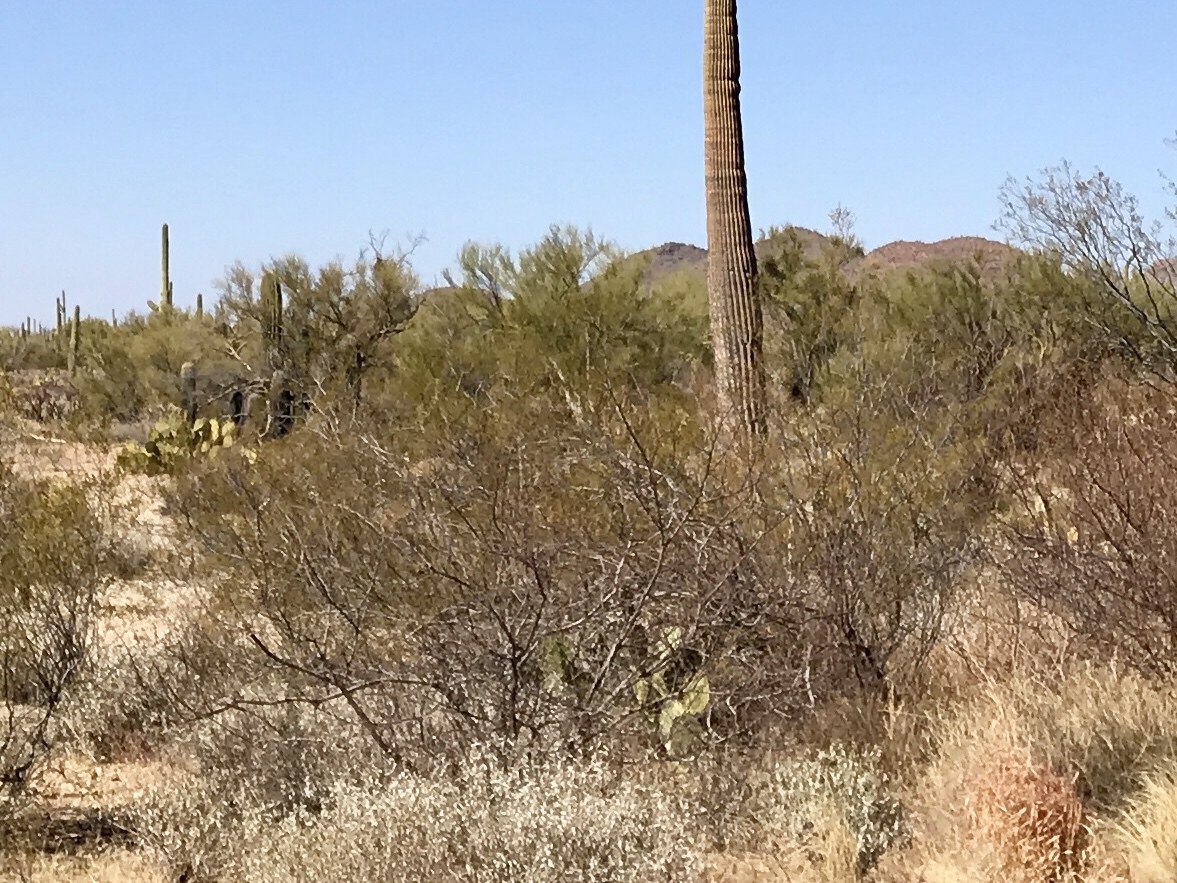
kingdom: Plantae
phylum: Tracheophyta
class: Magnoliopsida
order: Zygophyllales
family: Zygophyllaceae
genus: Larrea
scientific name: Larrea tridentata
